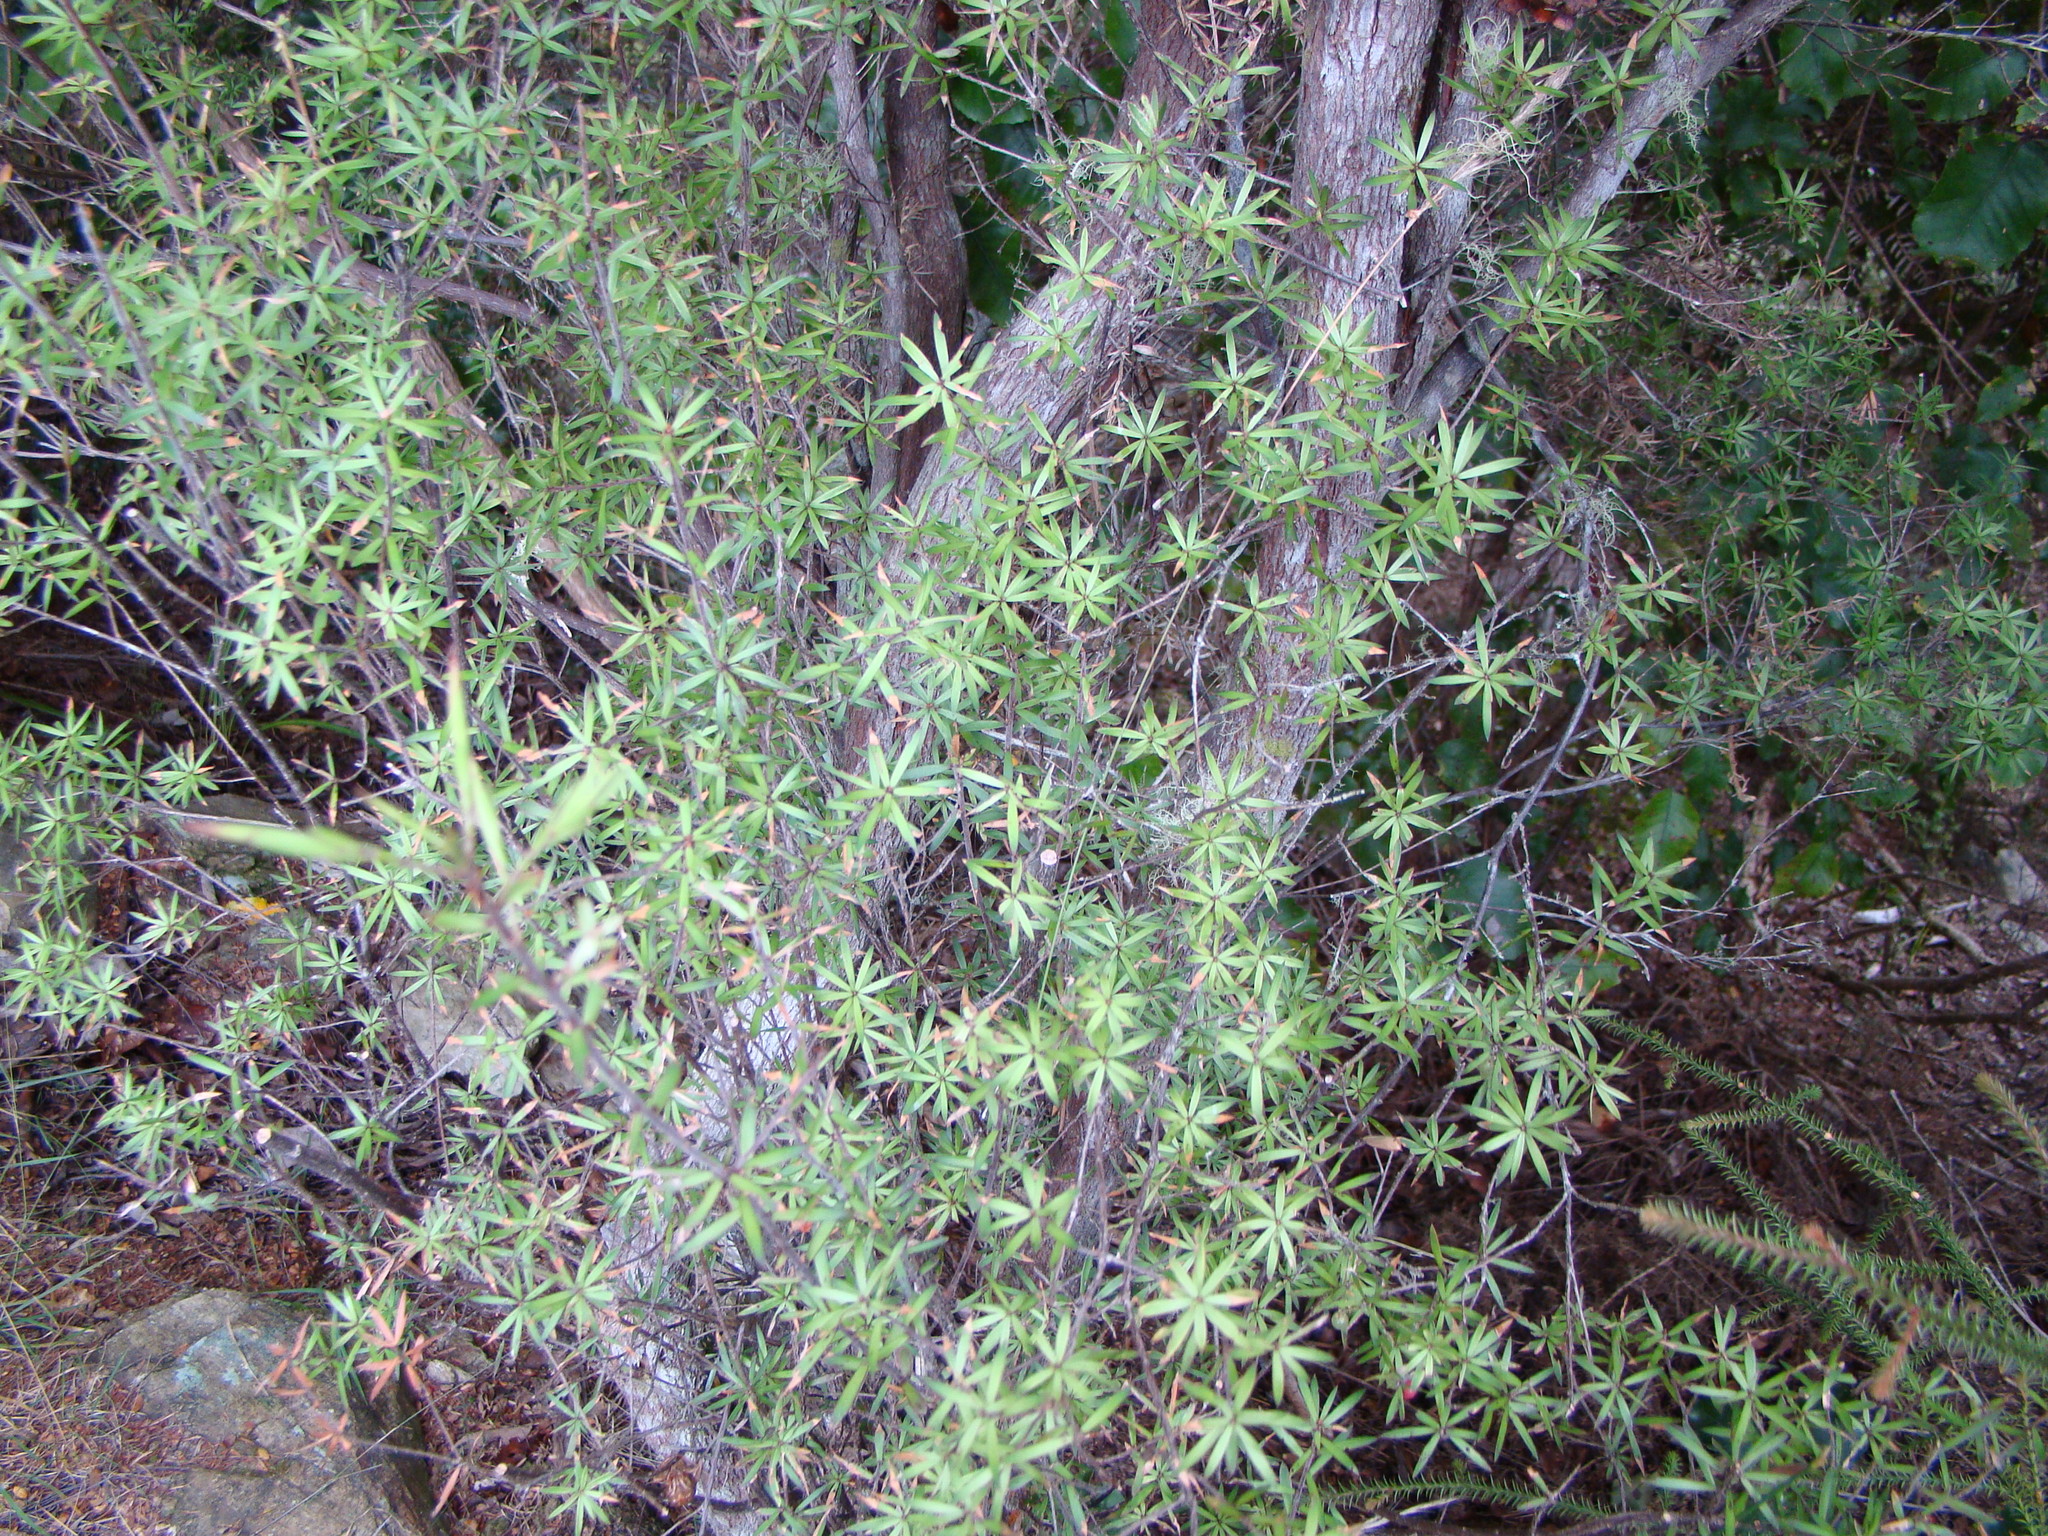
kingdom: Plantae
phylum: Tracheophyta
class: Magnoliopsida
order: Ericales
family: Ericaceae
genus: Leucopogon
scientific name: Leucopogon fasciculatus
